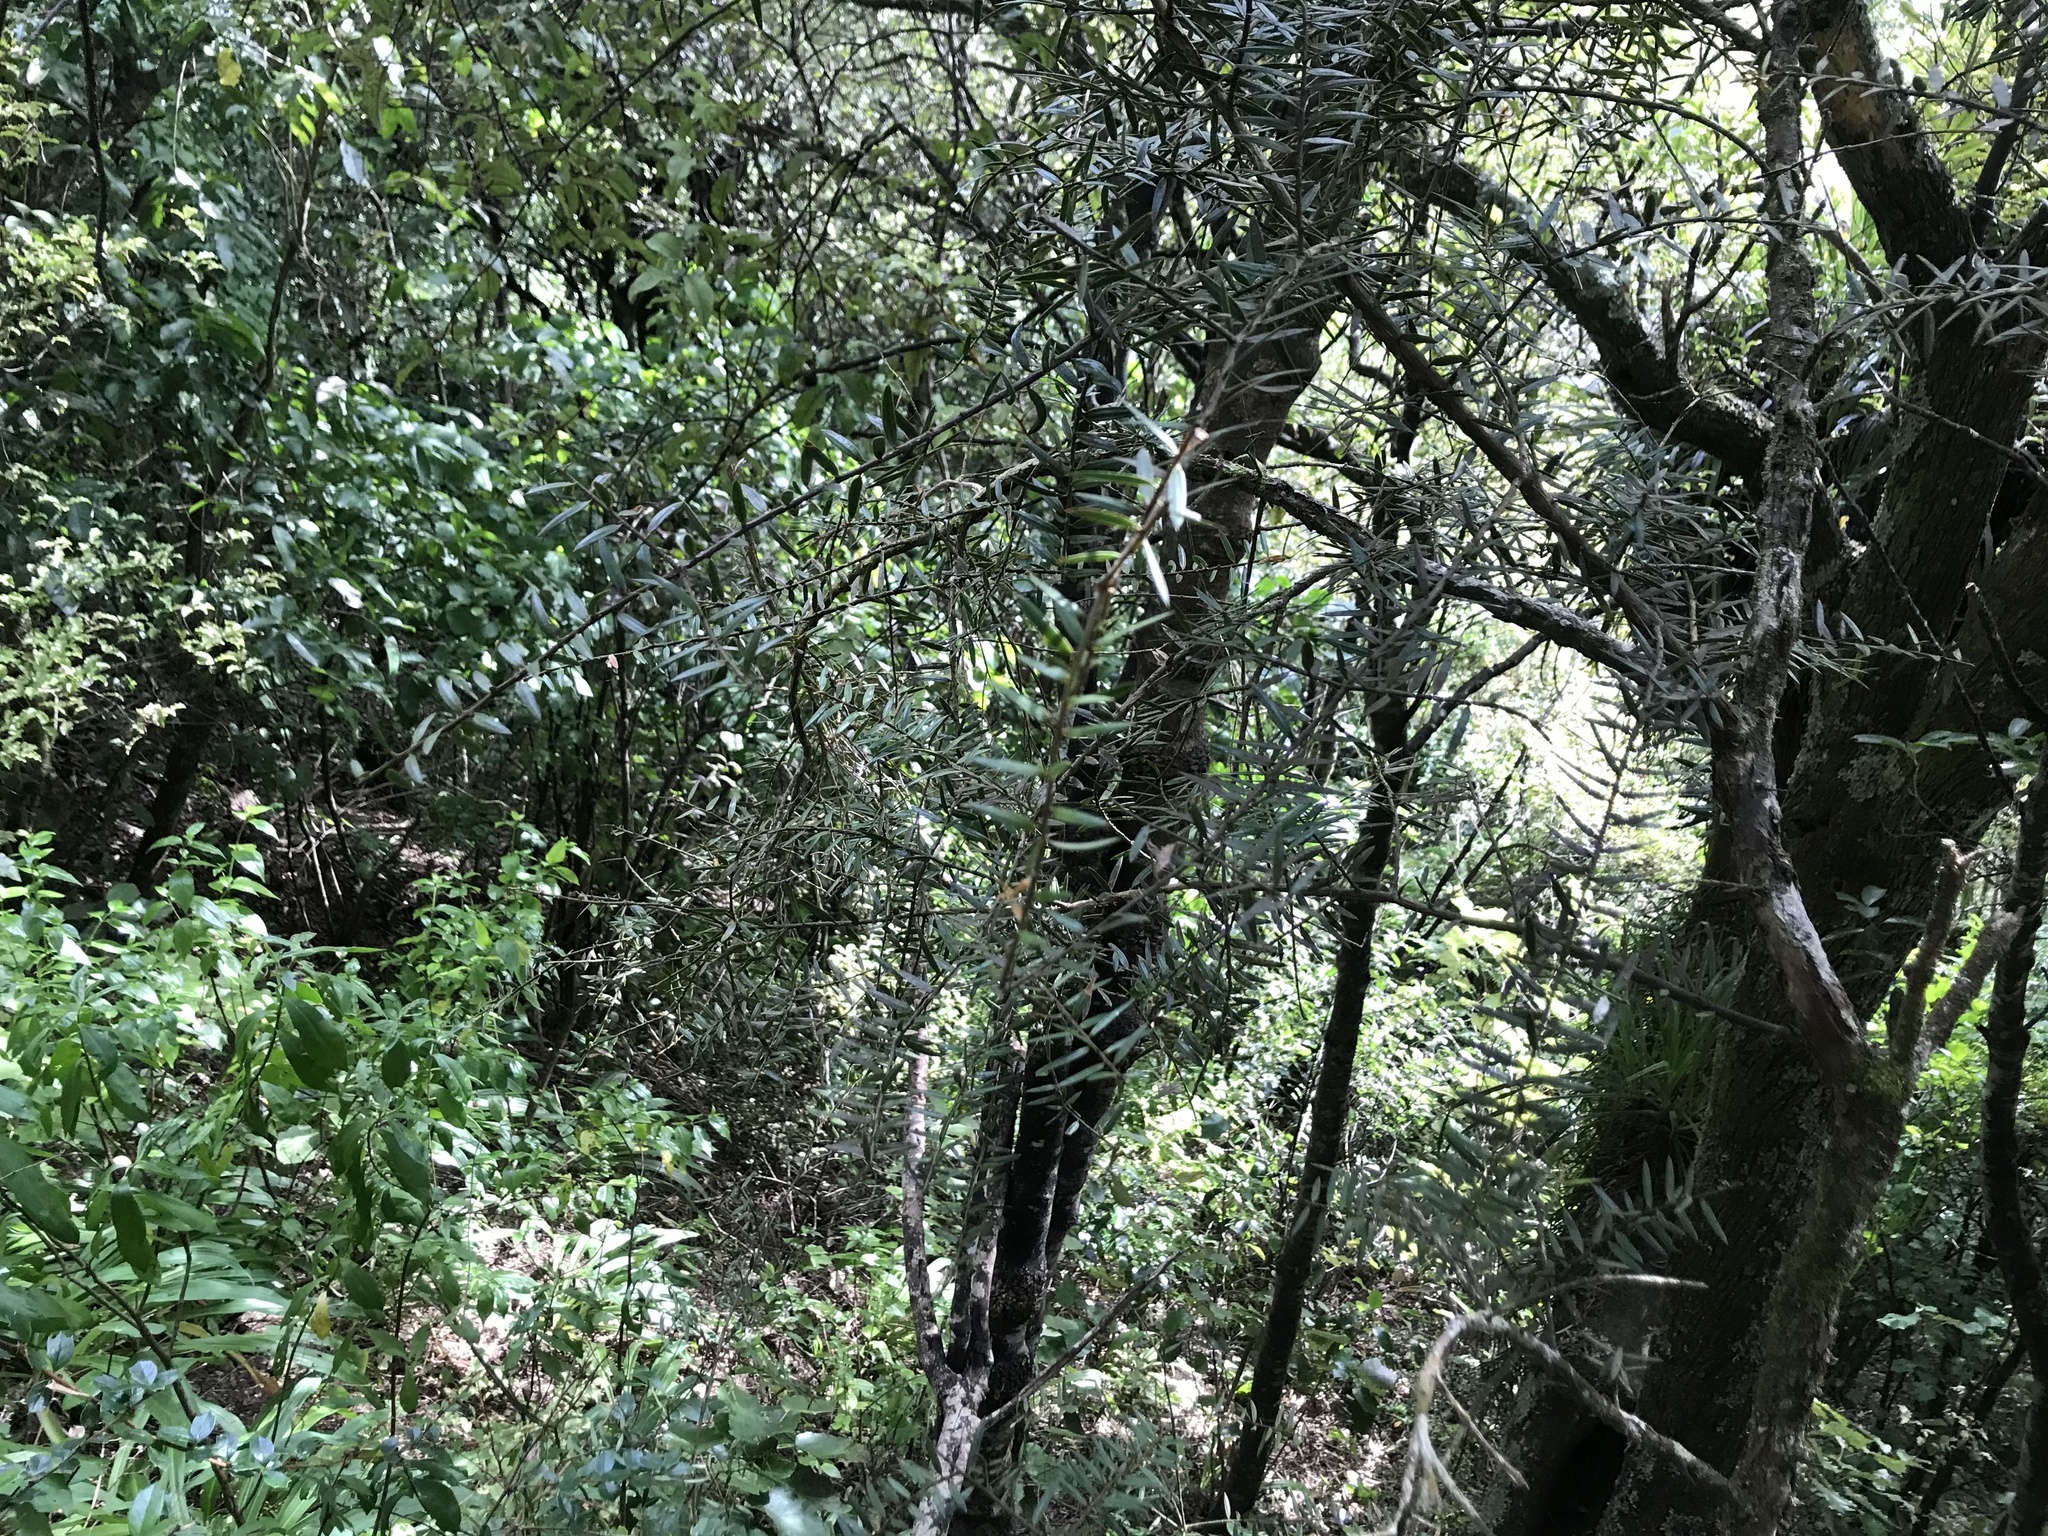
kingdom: Plantae
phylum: Tracheophyta
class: Pinopsida
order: Pinales
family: Podocarpaceae
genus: Podocarpus
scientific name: Podocarpus totara
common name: Totara
